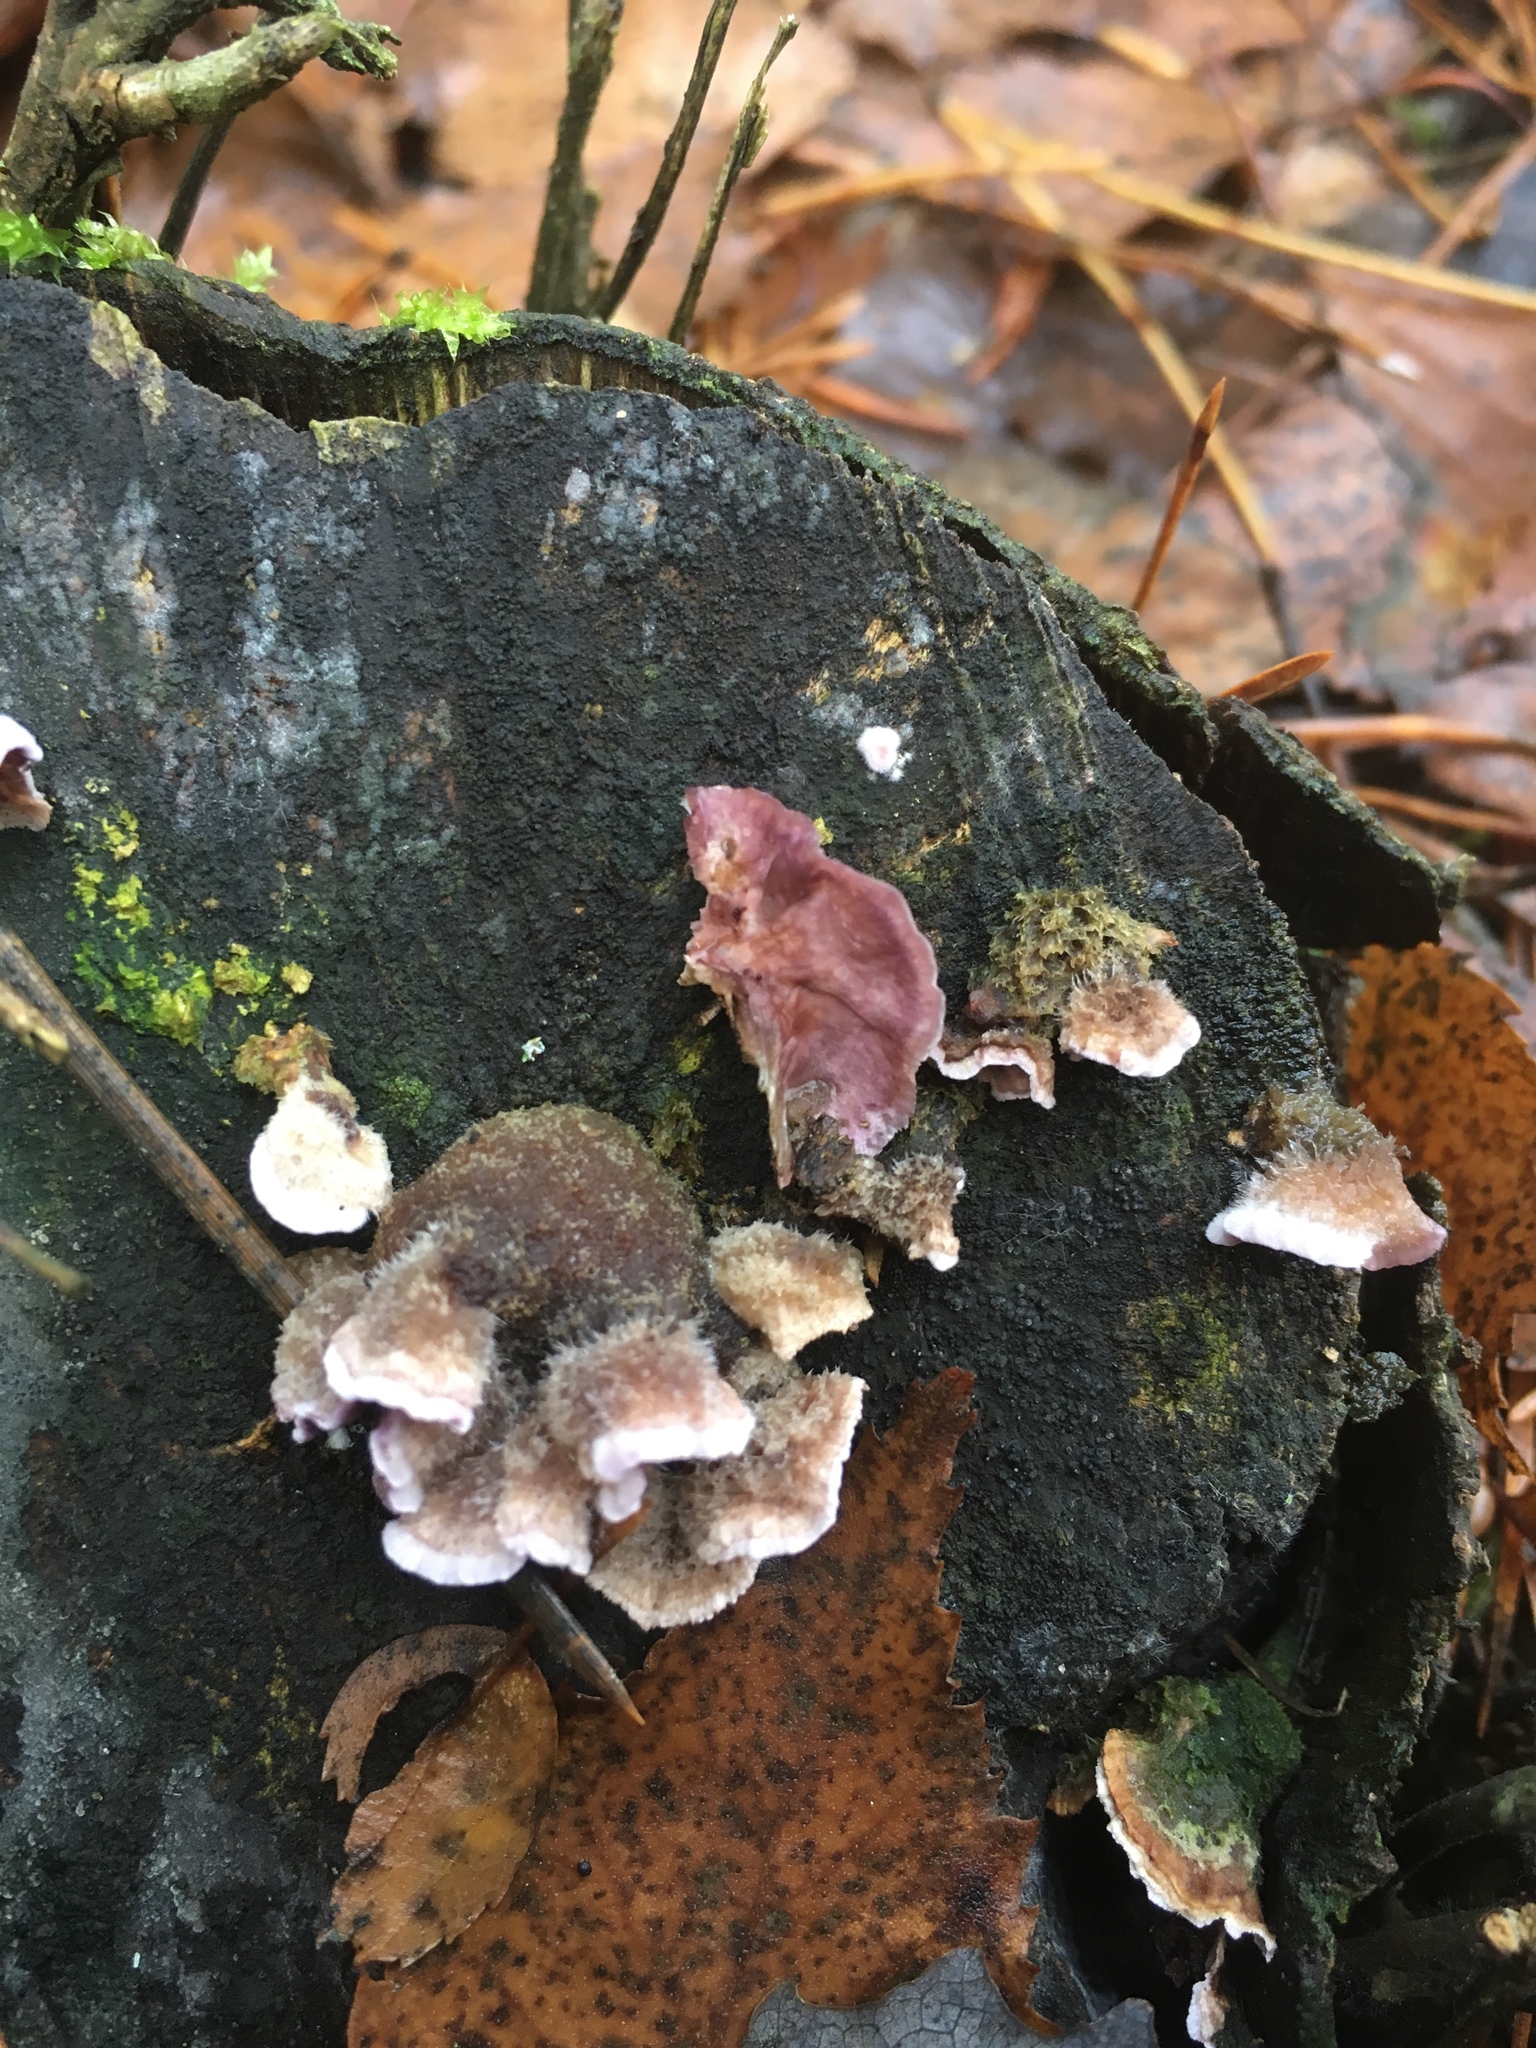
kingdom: Fungi
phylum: Basidiomycota
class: Agaricomycetes
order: Agaricales
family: Cyphellaceae
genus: Chondrostereum
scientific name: Chondrostereum purpureum
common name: Silver leaf disease
